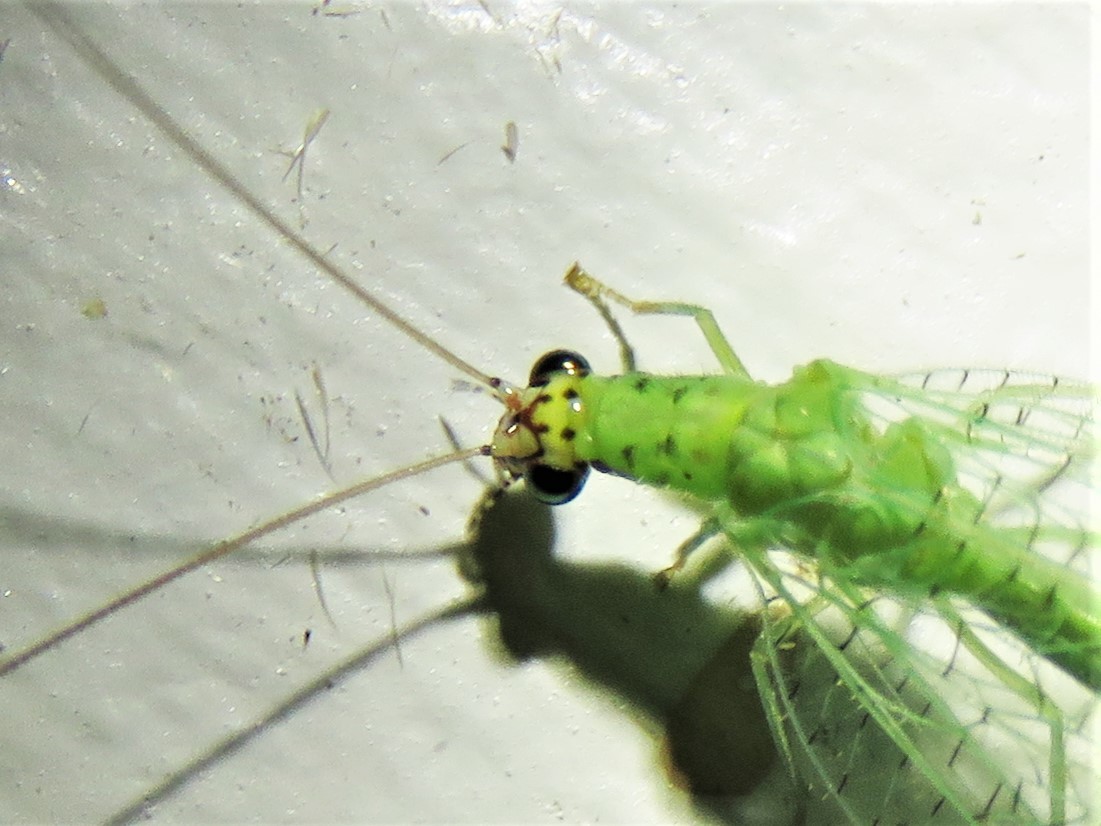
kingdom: Animalia
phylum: Arthropoda
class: Insecta
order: Neuroptera
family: Chrysopidae
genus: Chrysopa
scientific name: Chrysopa oculata
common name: Golden-eyed lacewing
